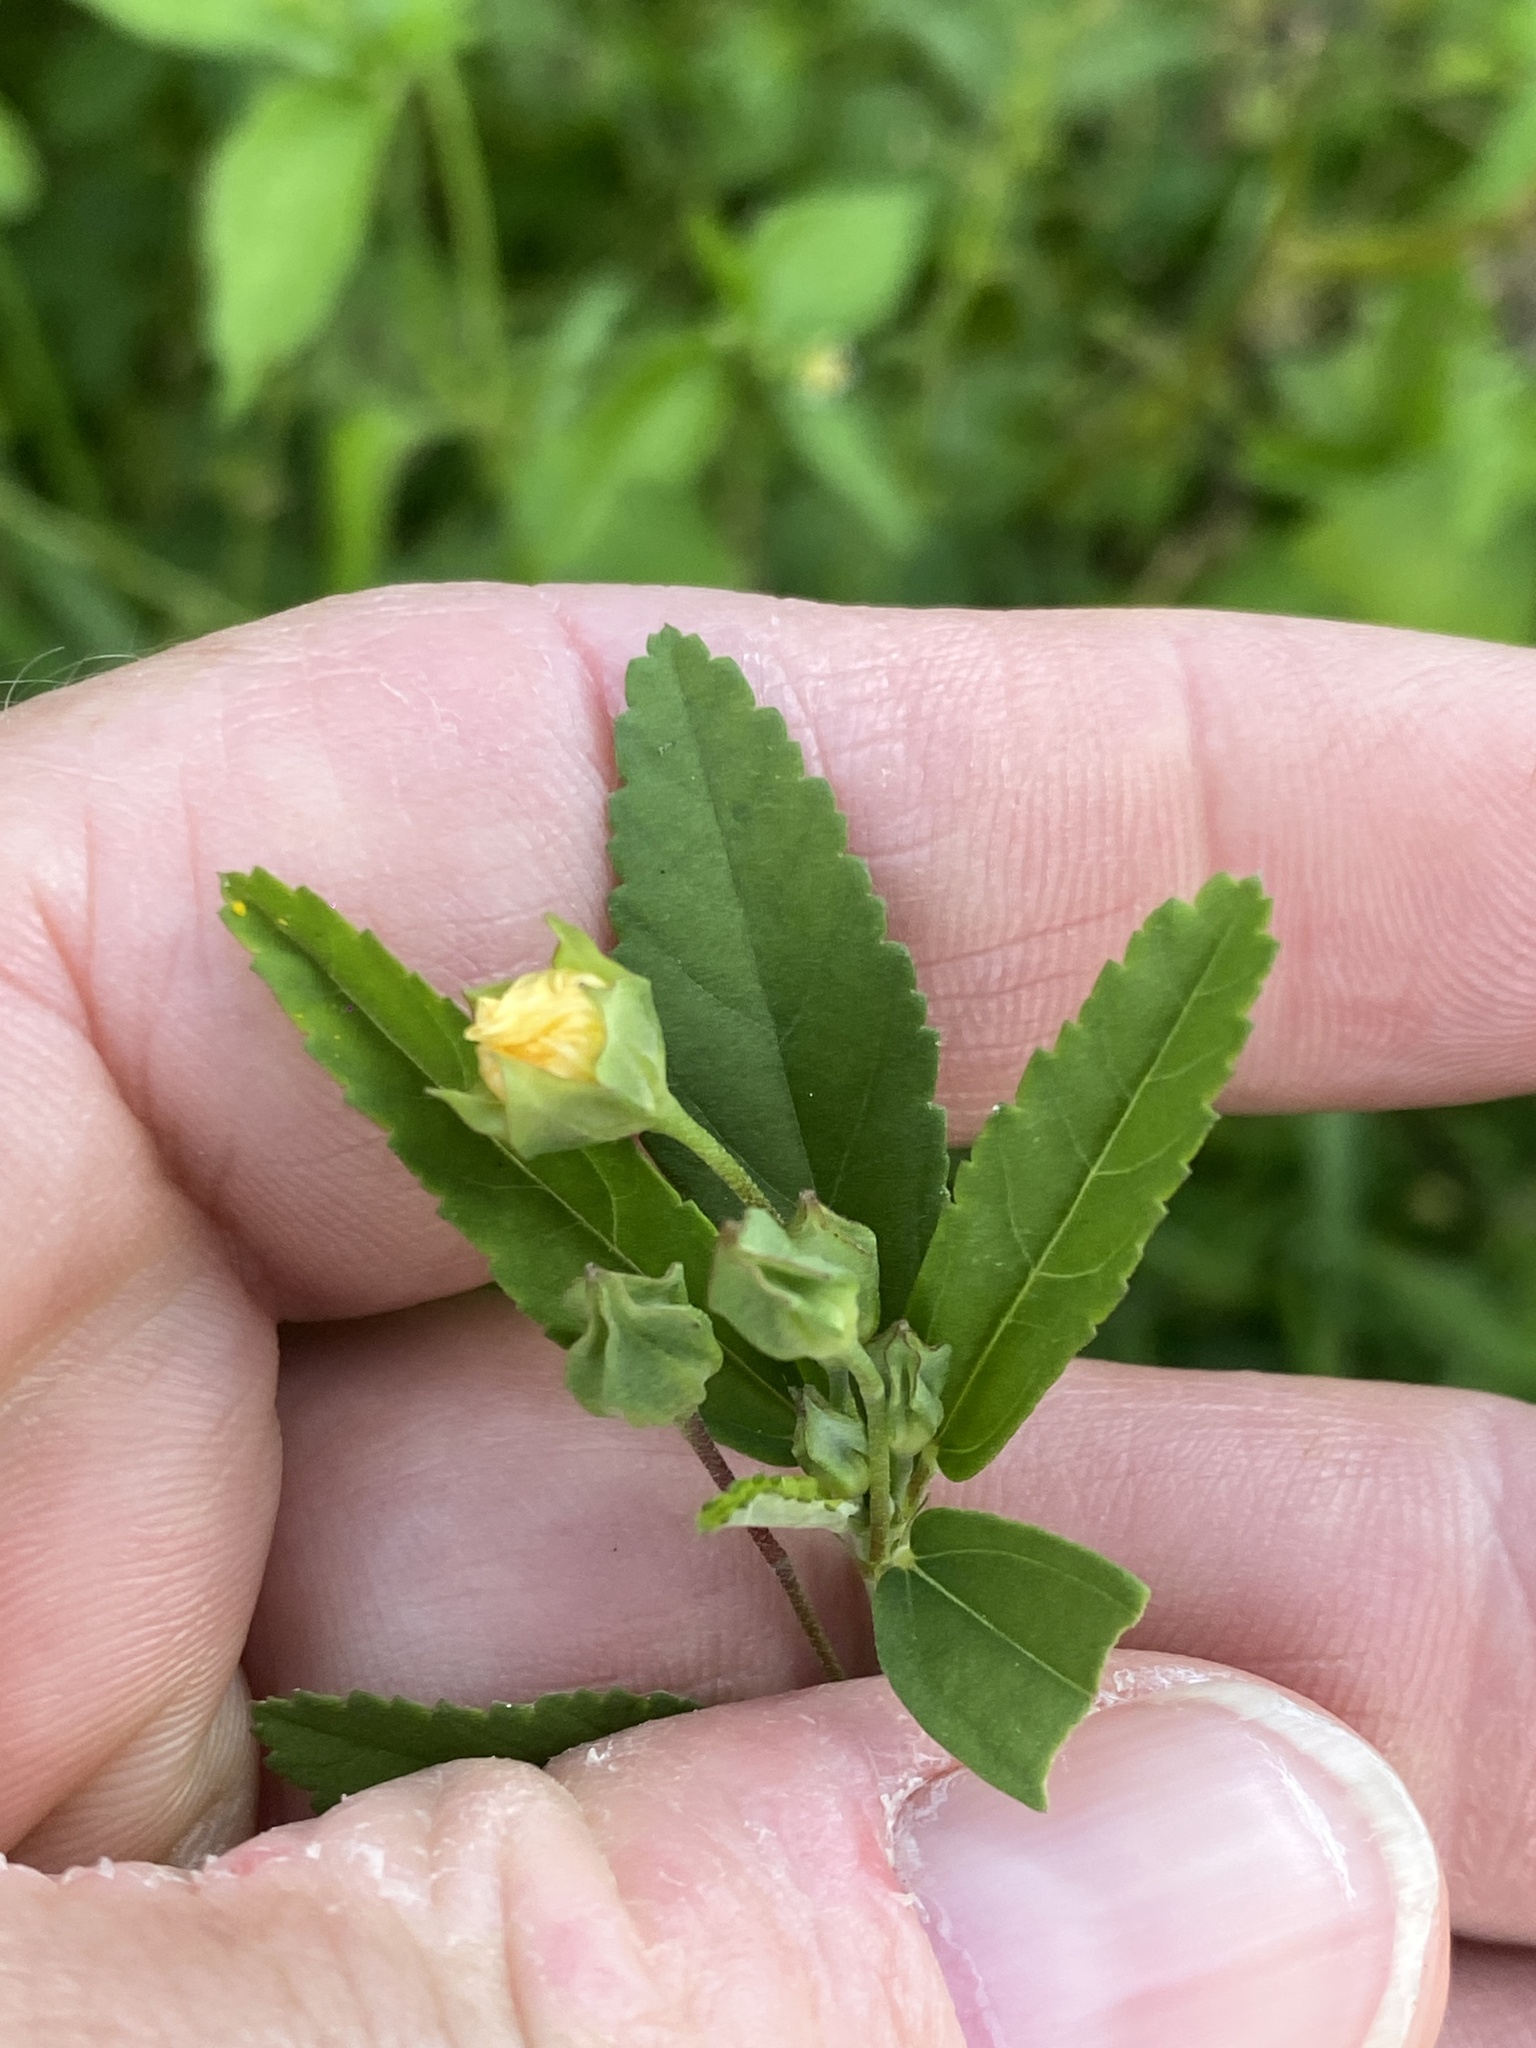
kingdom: Plantae
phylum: Tracheophyta
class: Magnoliopsida
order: Malvales
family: Malvaceae
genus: Sida
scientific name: Sida rhombifolia
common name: Queensland-hemp
